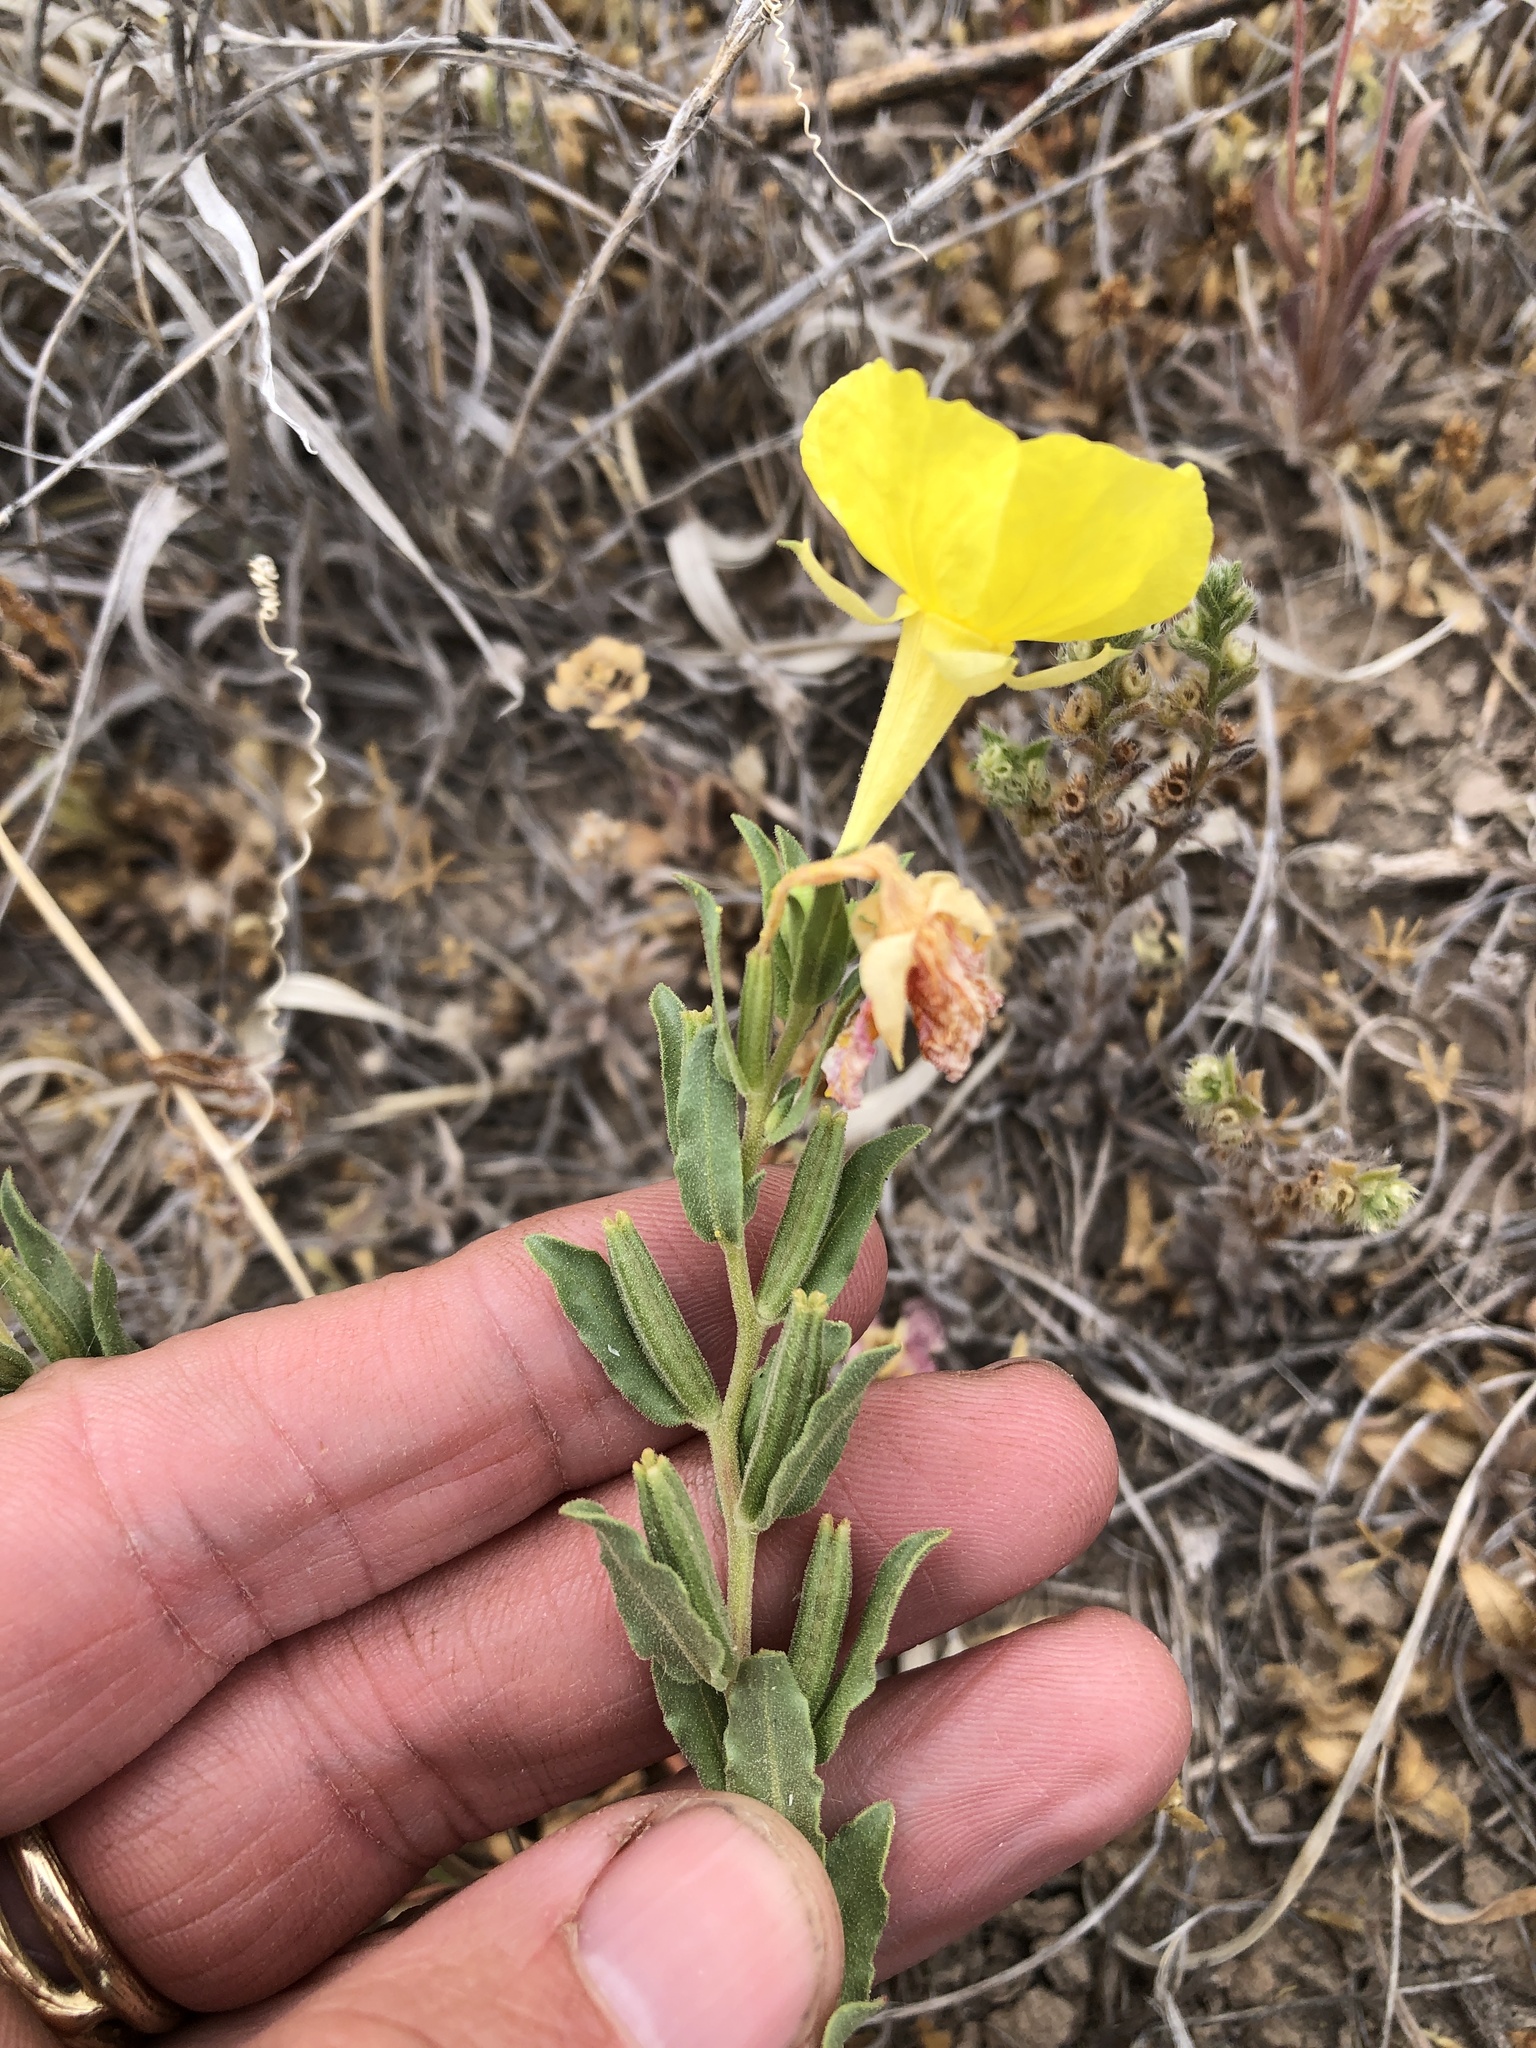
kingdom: Plantae
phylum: Tracheophyta
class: Magnoliopsida
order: Myrtales
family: Onagraceae
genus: Oenothera
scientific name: Oenothera tubicula
